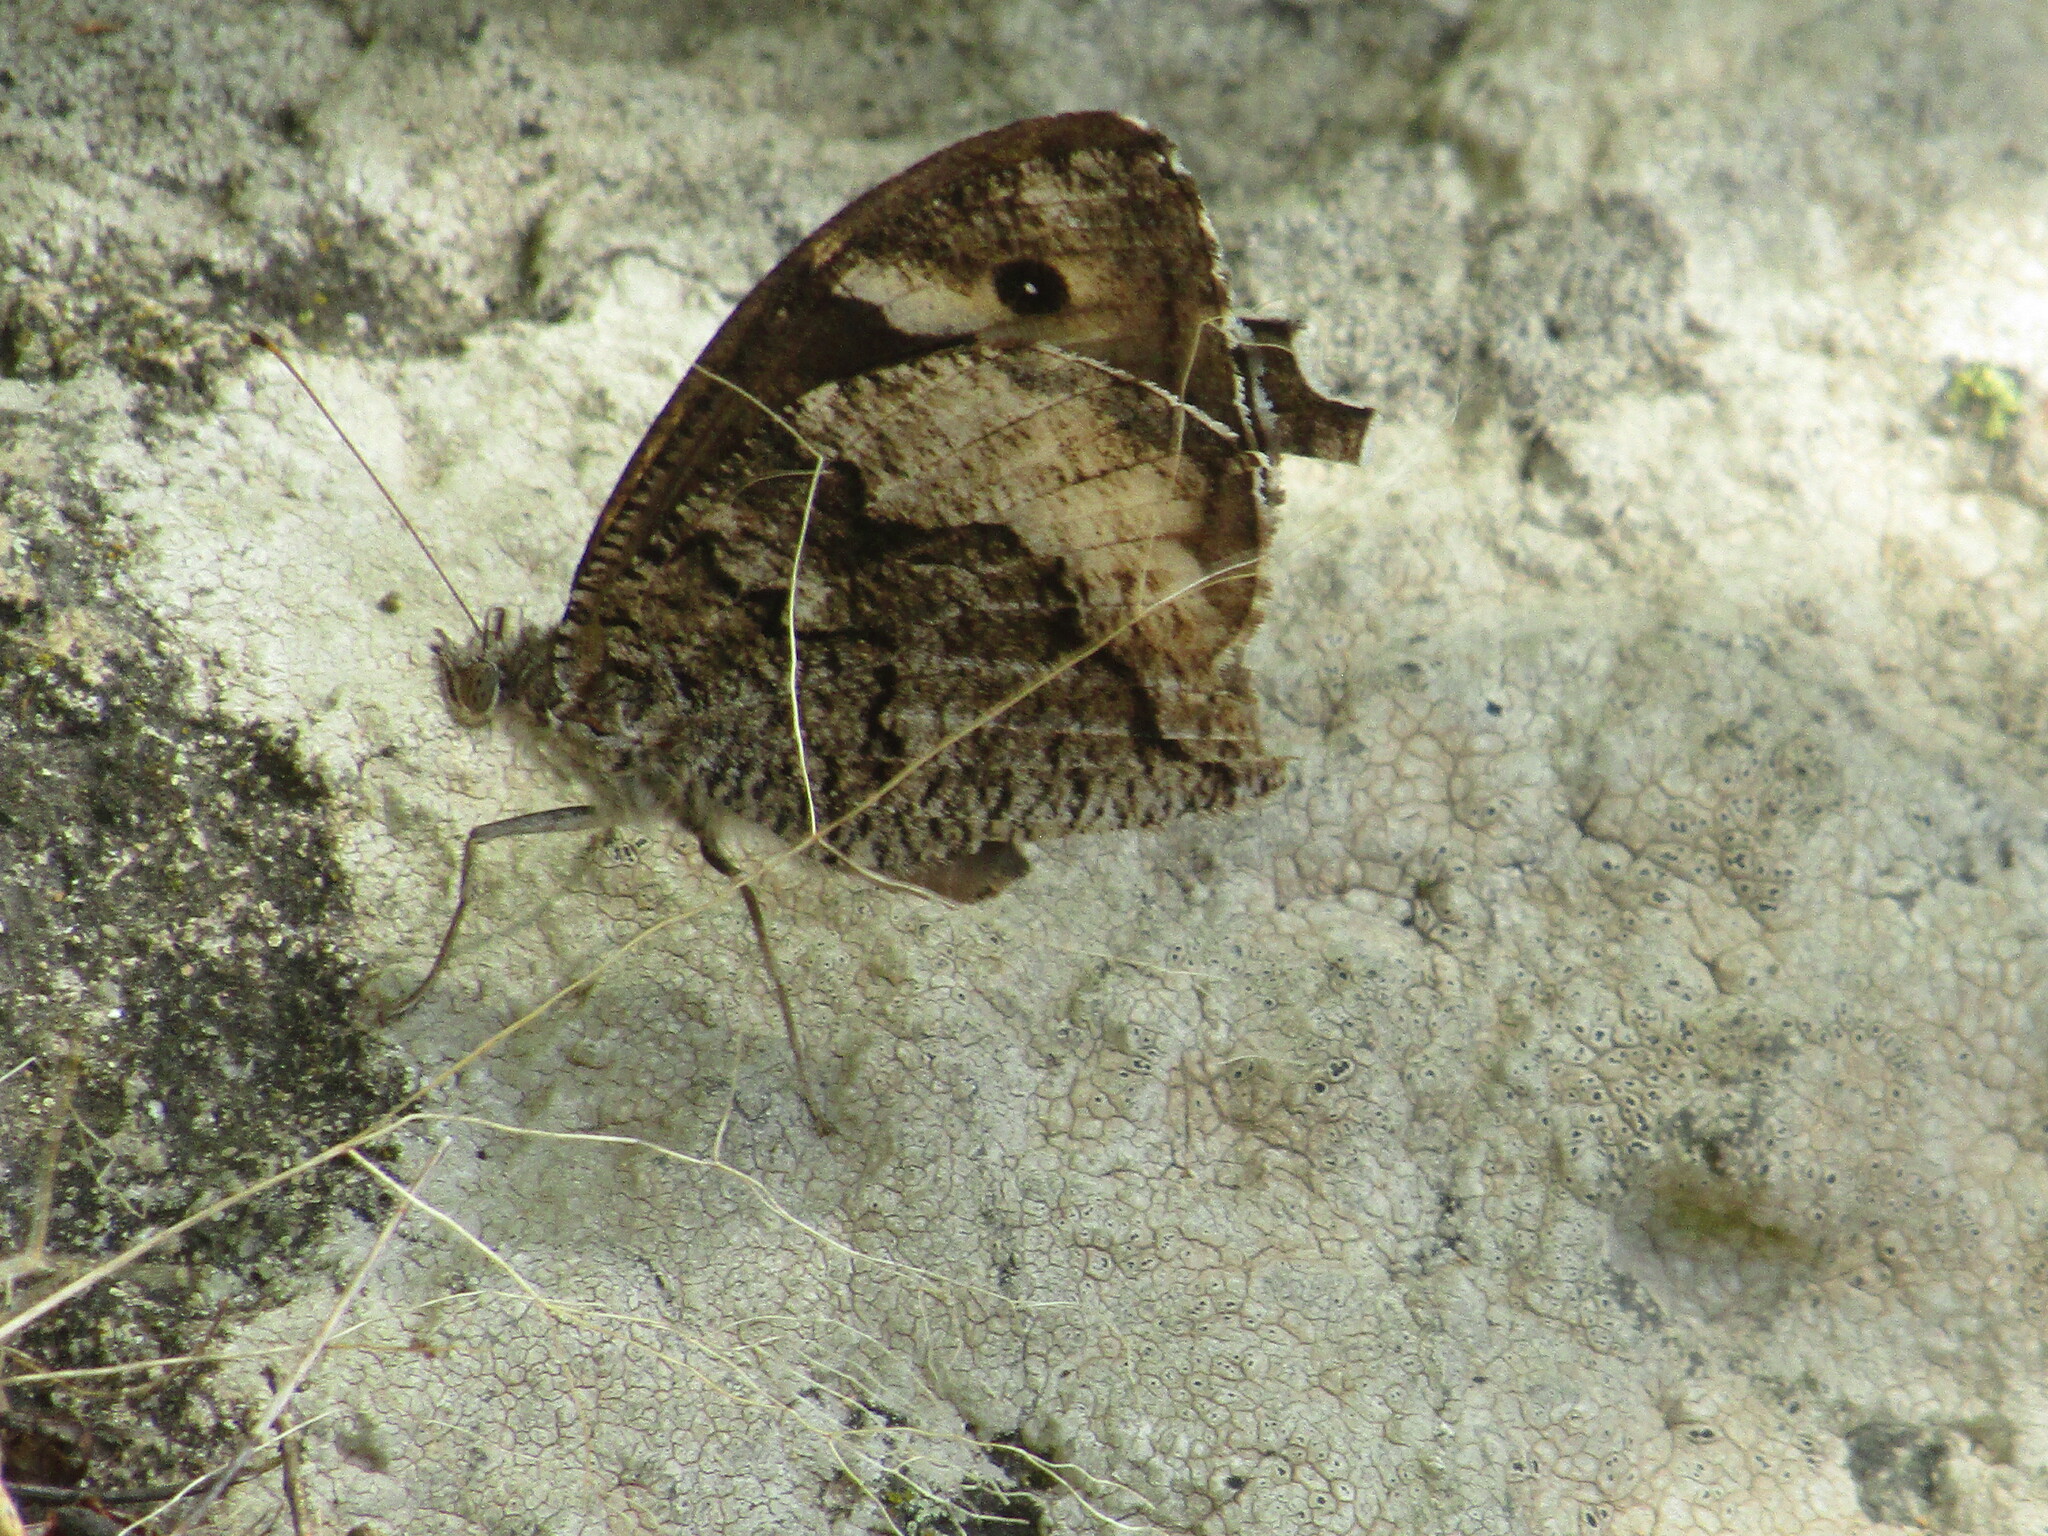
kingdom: Animalia
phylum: Arthropoda
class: Insecta
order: Lepidoptera
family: Nymphalidae
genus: Hipparchia
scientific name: Hipparchia
